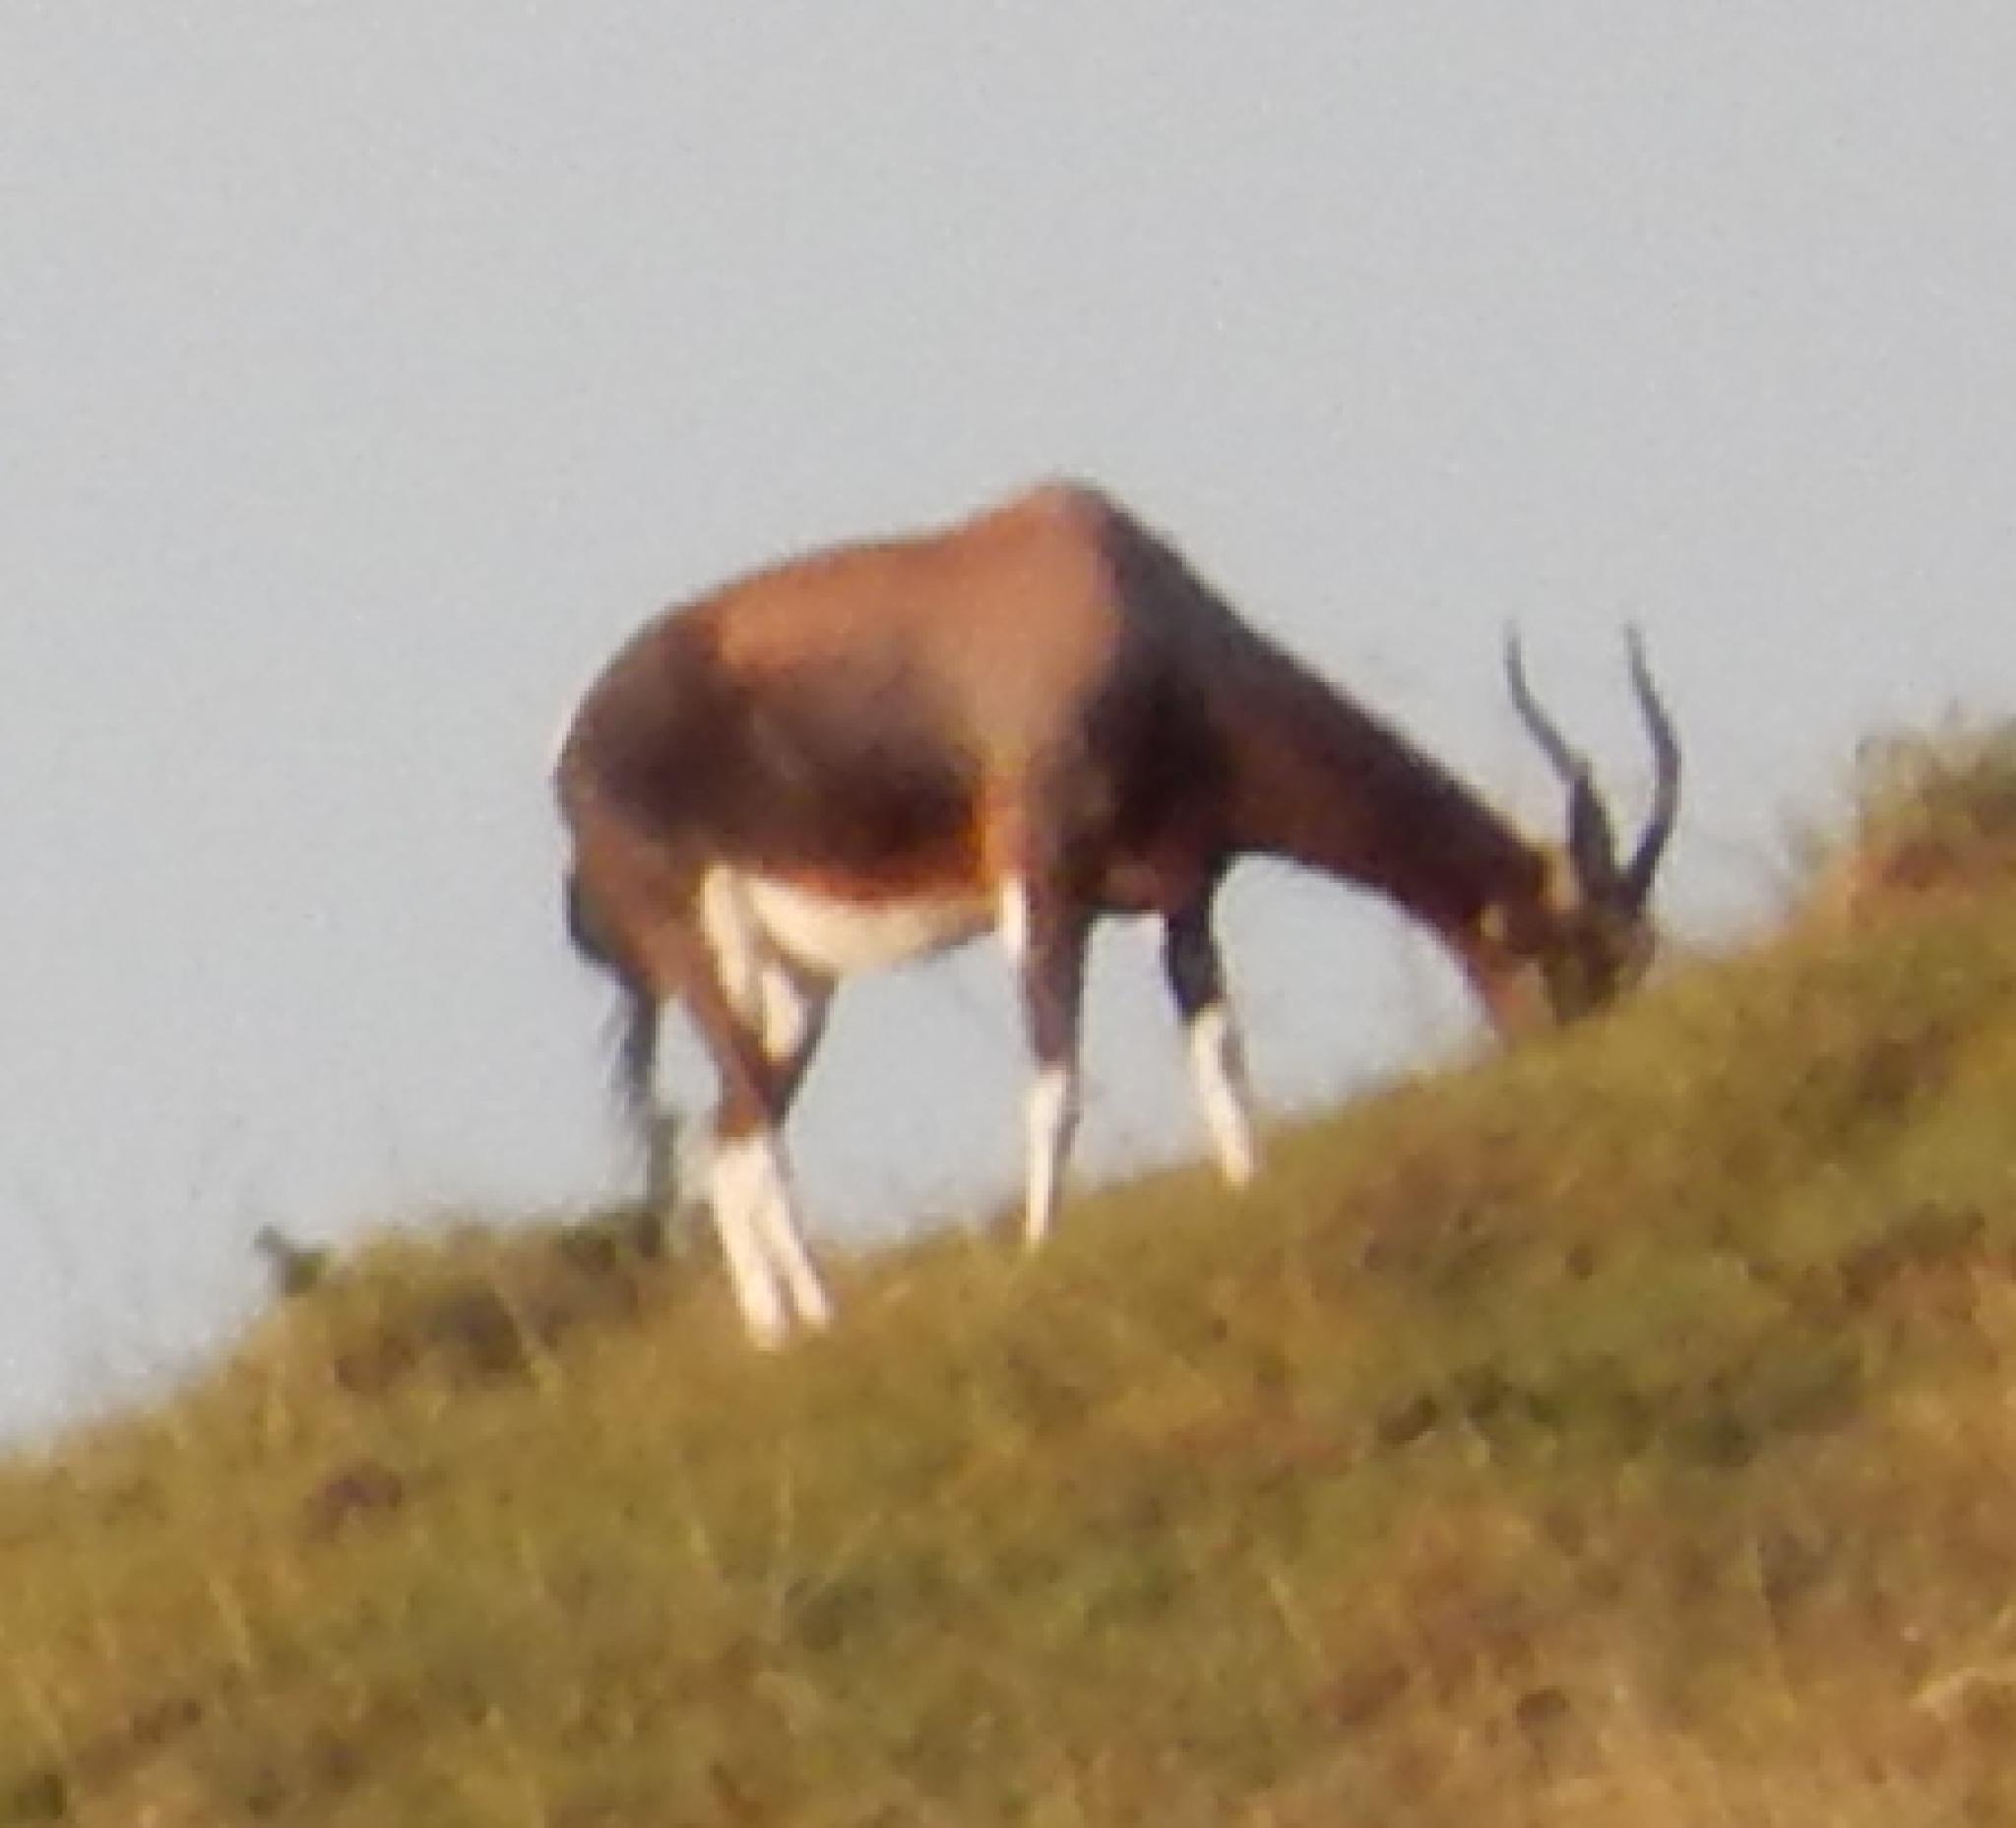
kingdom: Animalia
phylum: Chordata
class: Mammalia
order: Artiodactyla
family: Bovidae
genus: Damaliscus
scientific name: Damaliscus pygargus
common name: Bontebok
